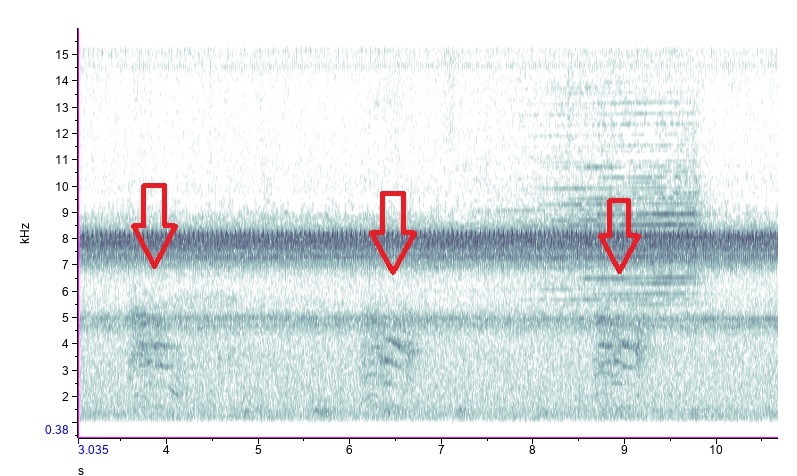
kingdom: Animalia
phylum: Chordata
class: Aves
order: Passeriformes
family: Mimidae
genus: Dumetella
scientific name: Dumetella carolinensis
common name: Gray catbird
